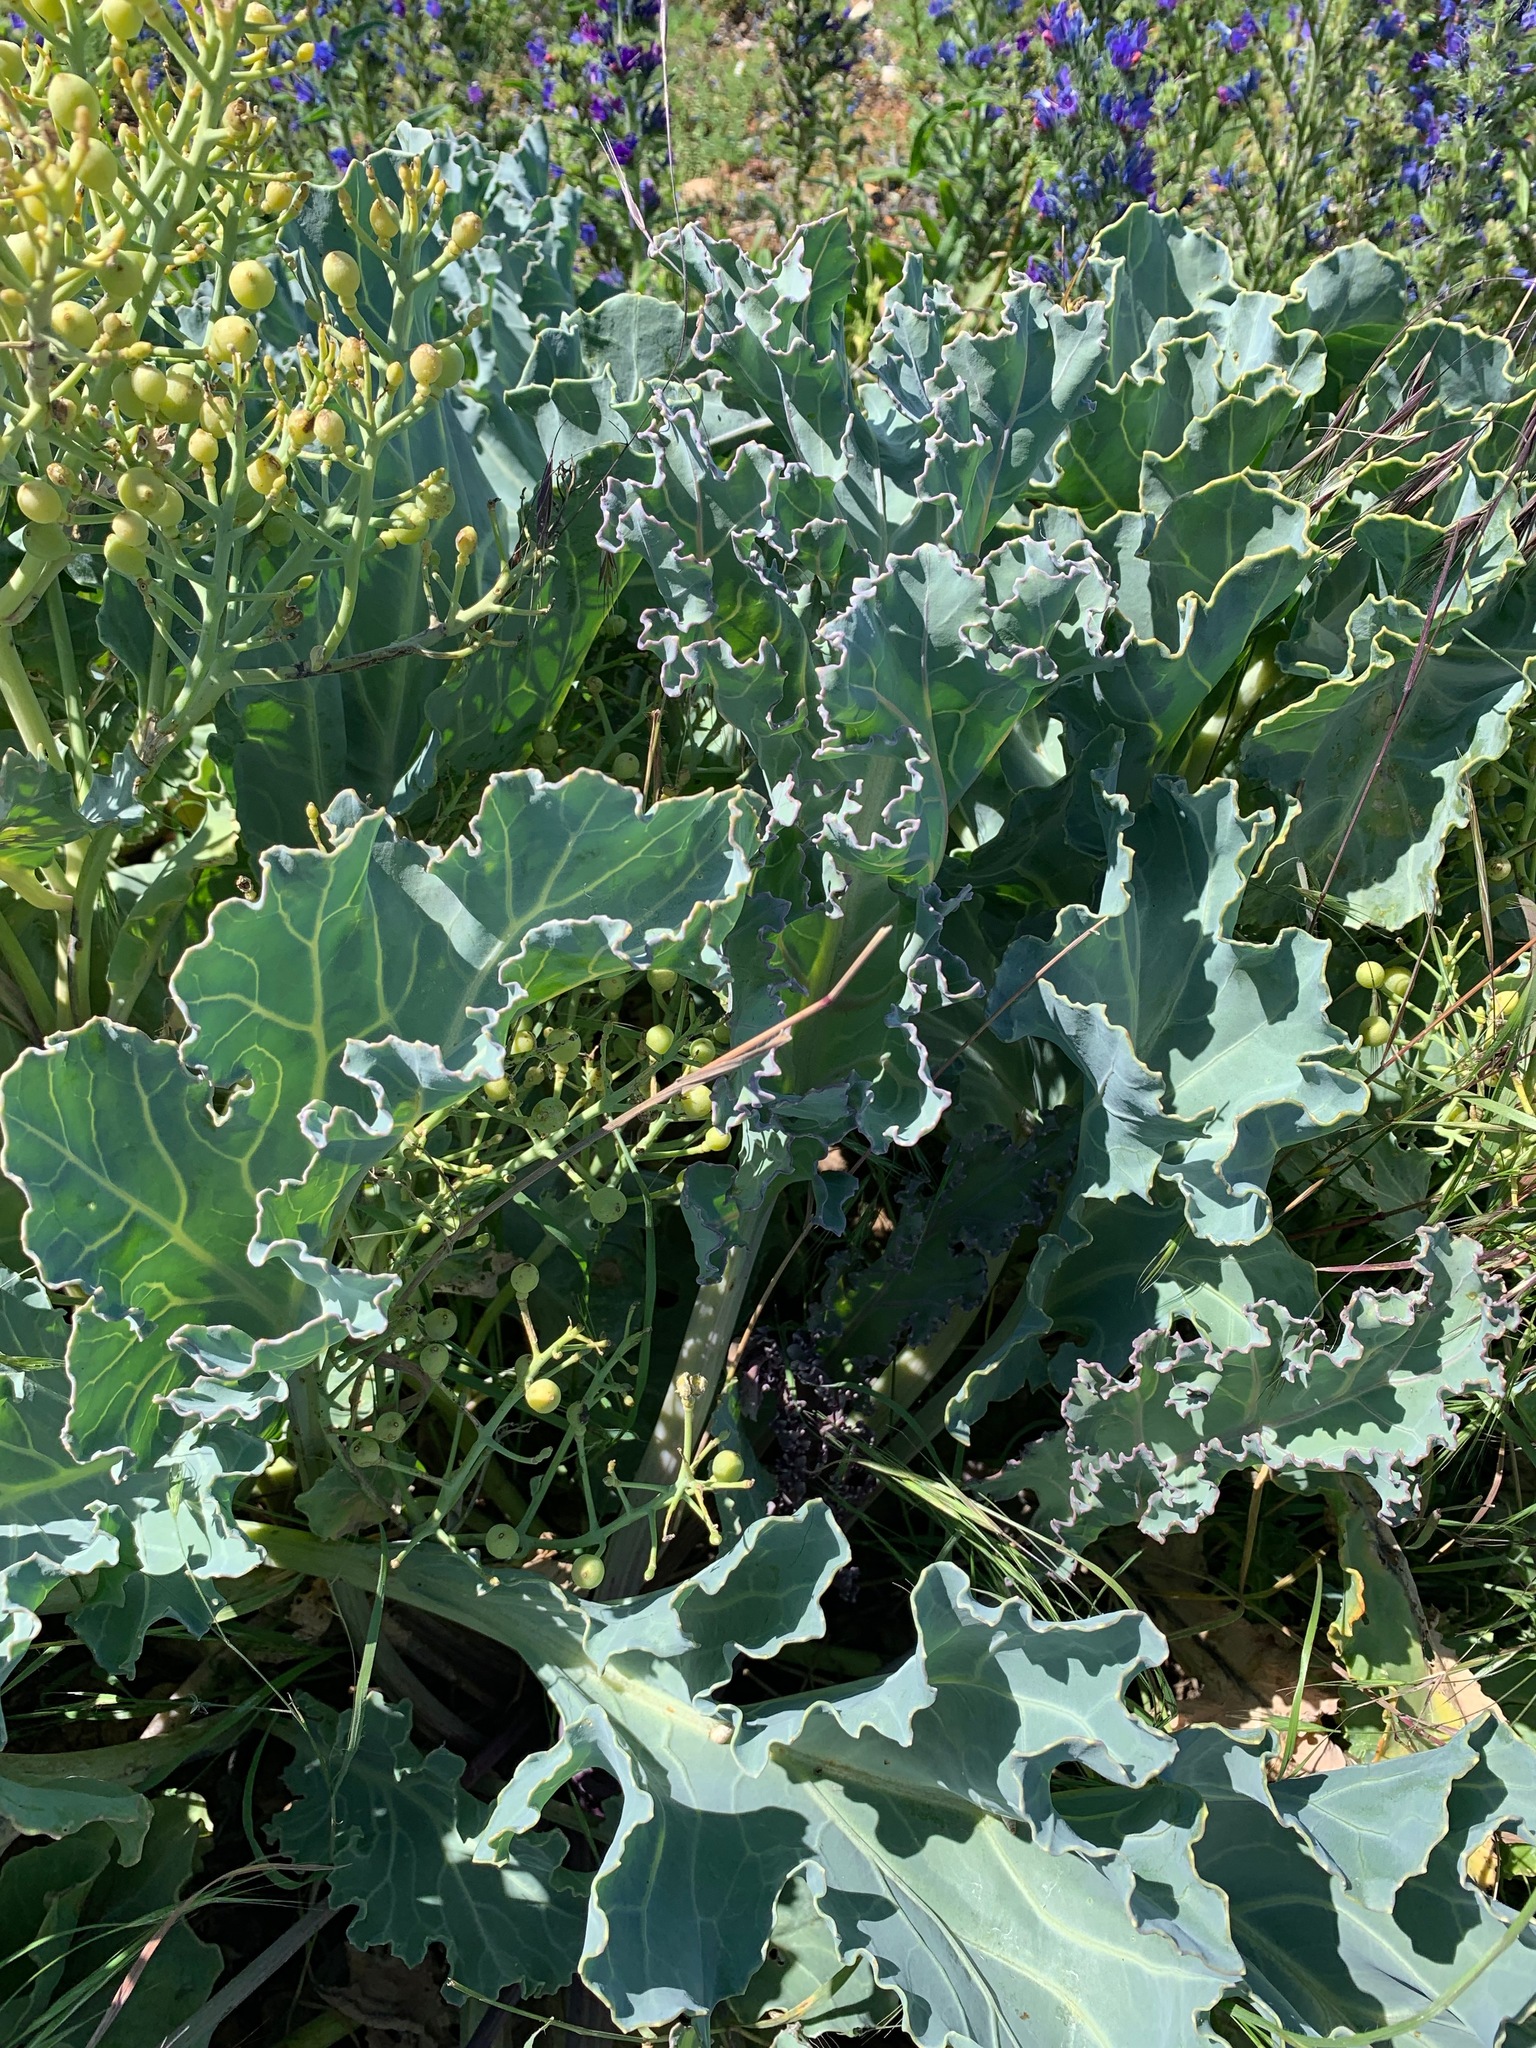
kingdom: Plantae
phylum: Tracheophyta
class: Magnoliopsida
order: Brassicales
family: Brassicaceae
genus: Crambe
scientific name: Crambe maritima
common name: Sea-kale
